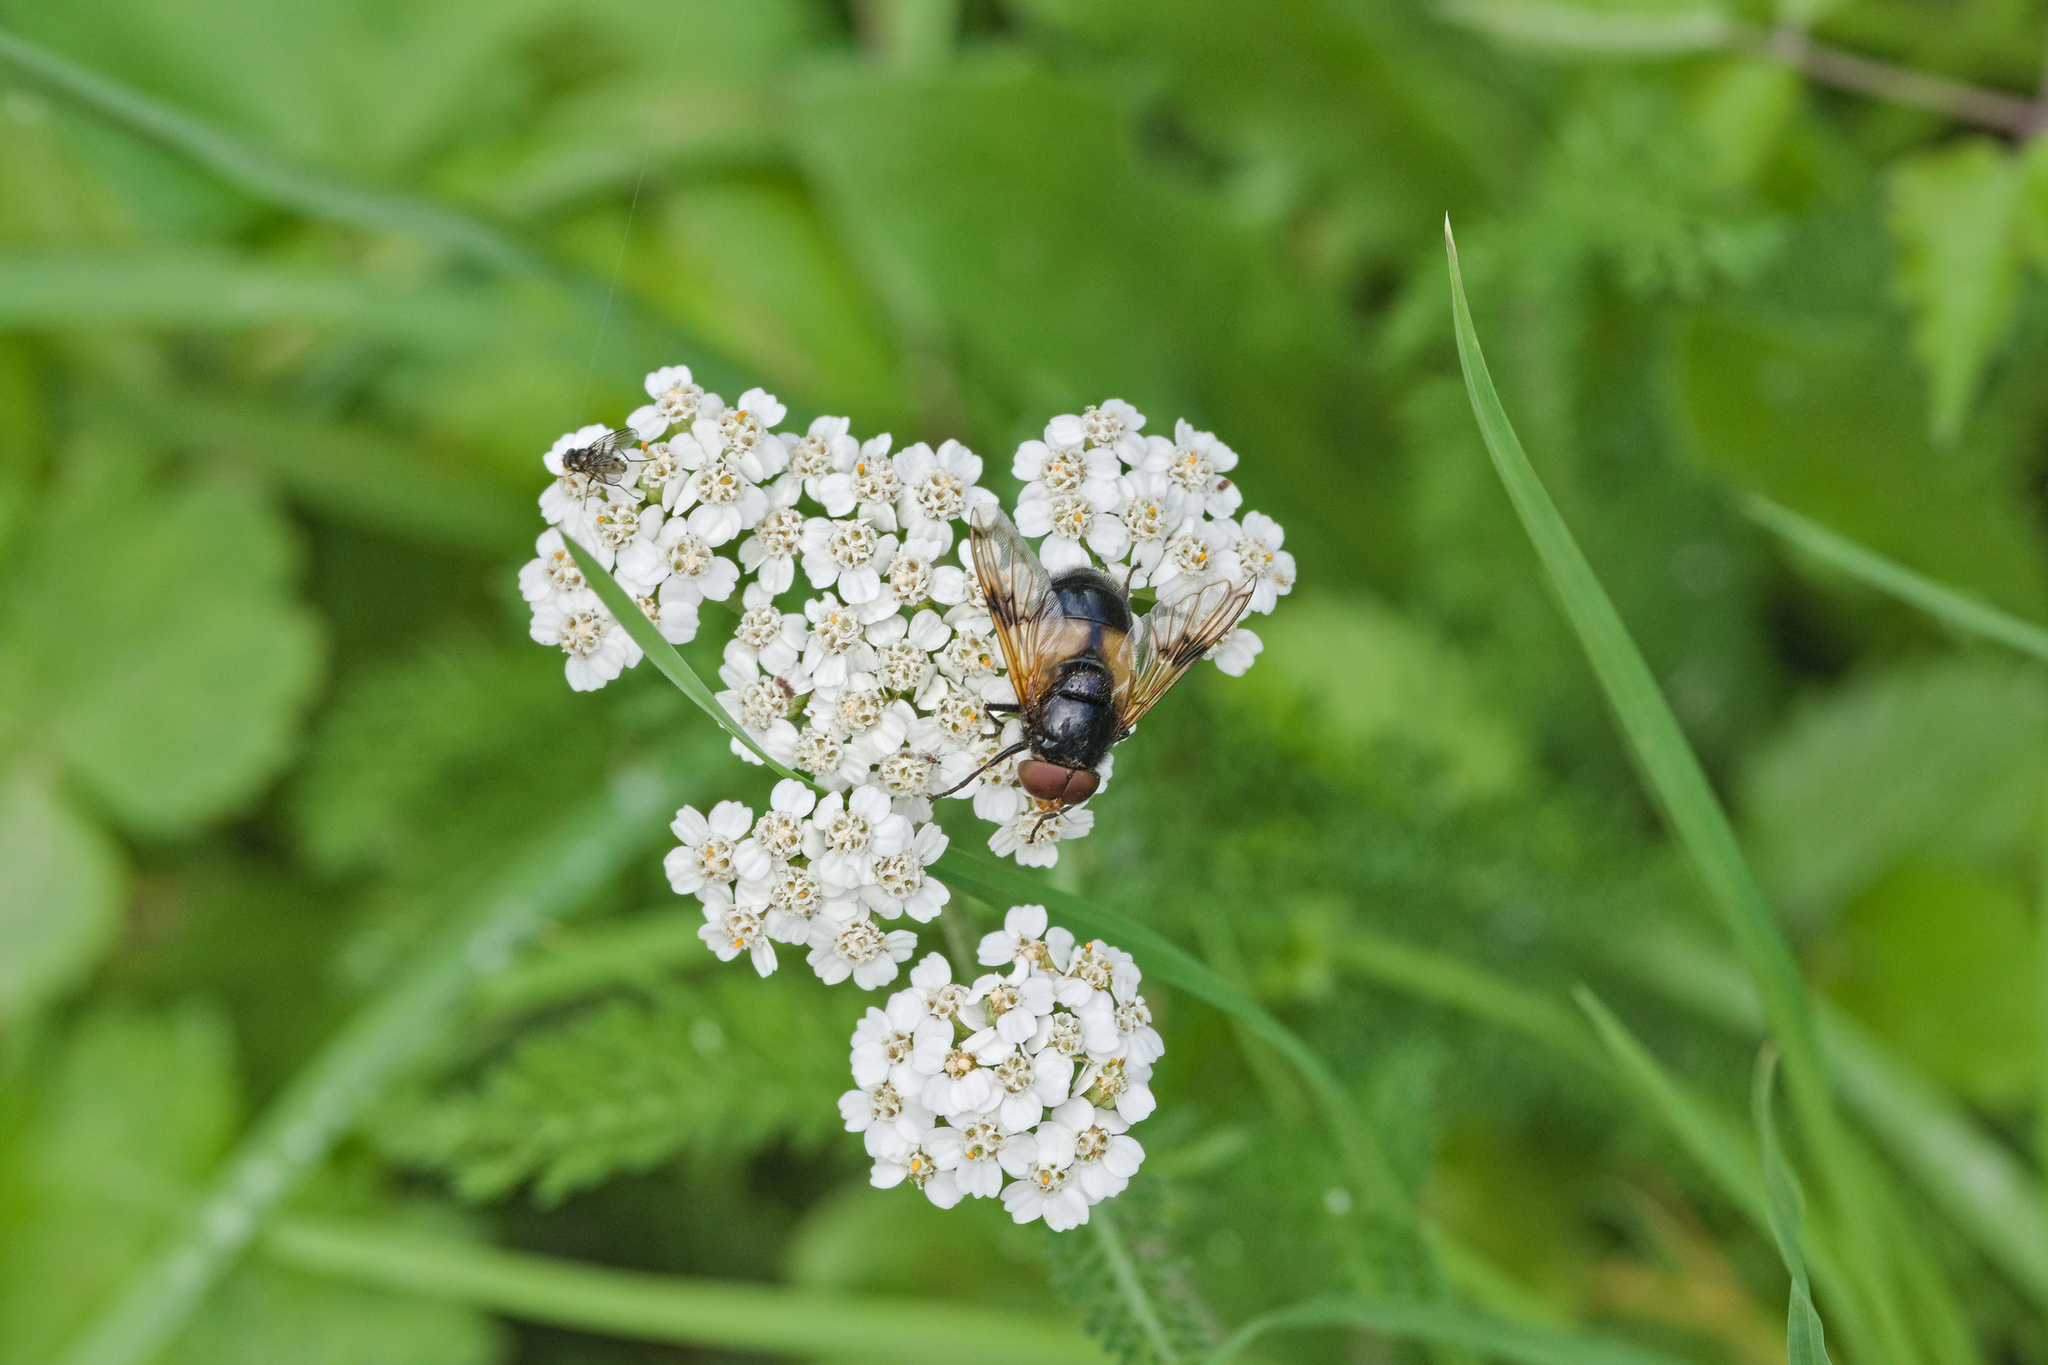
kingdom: Animalia
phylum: Arthropoda
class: Insecta
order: Diptera
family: Syrphidae
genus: Volucella
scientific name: Volucella pellucens
